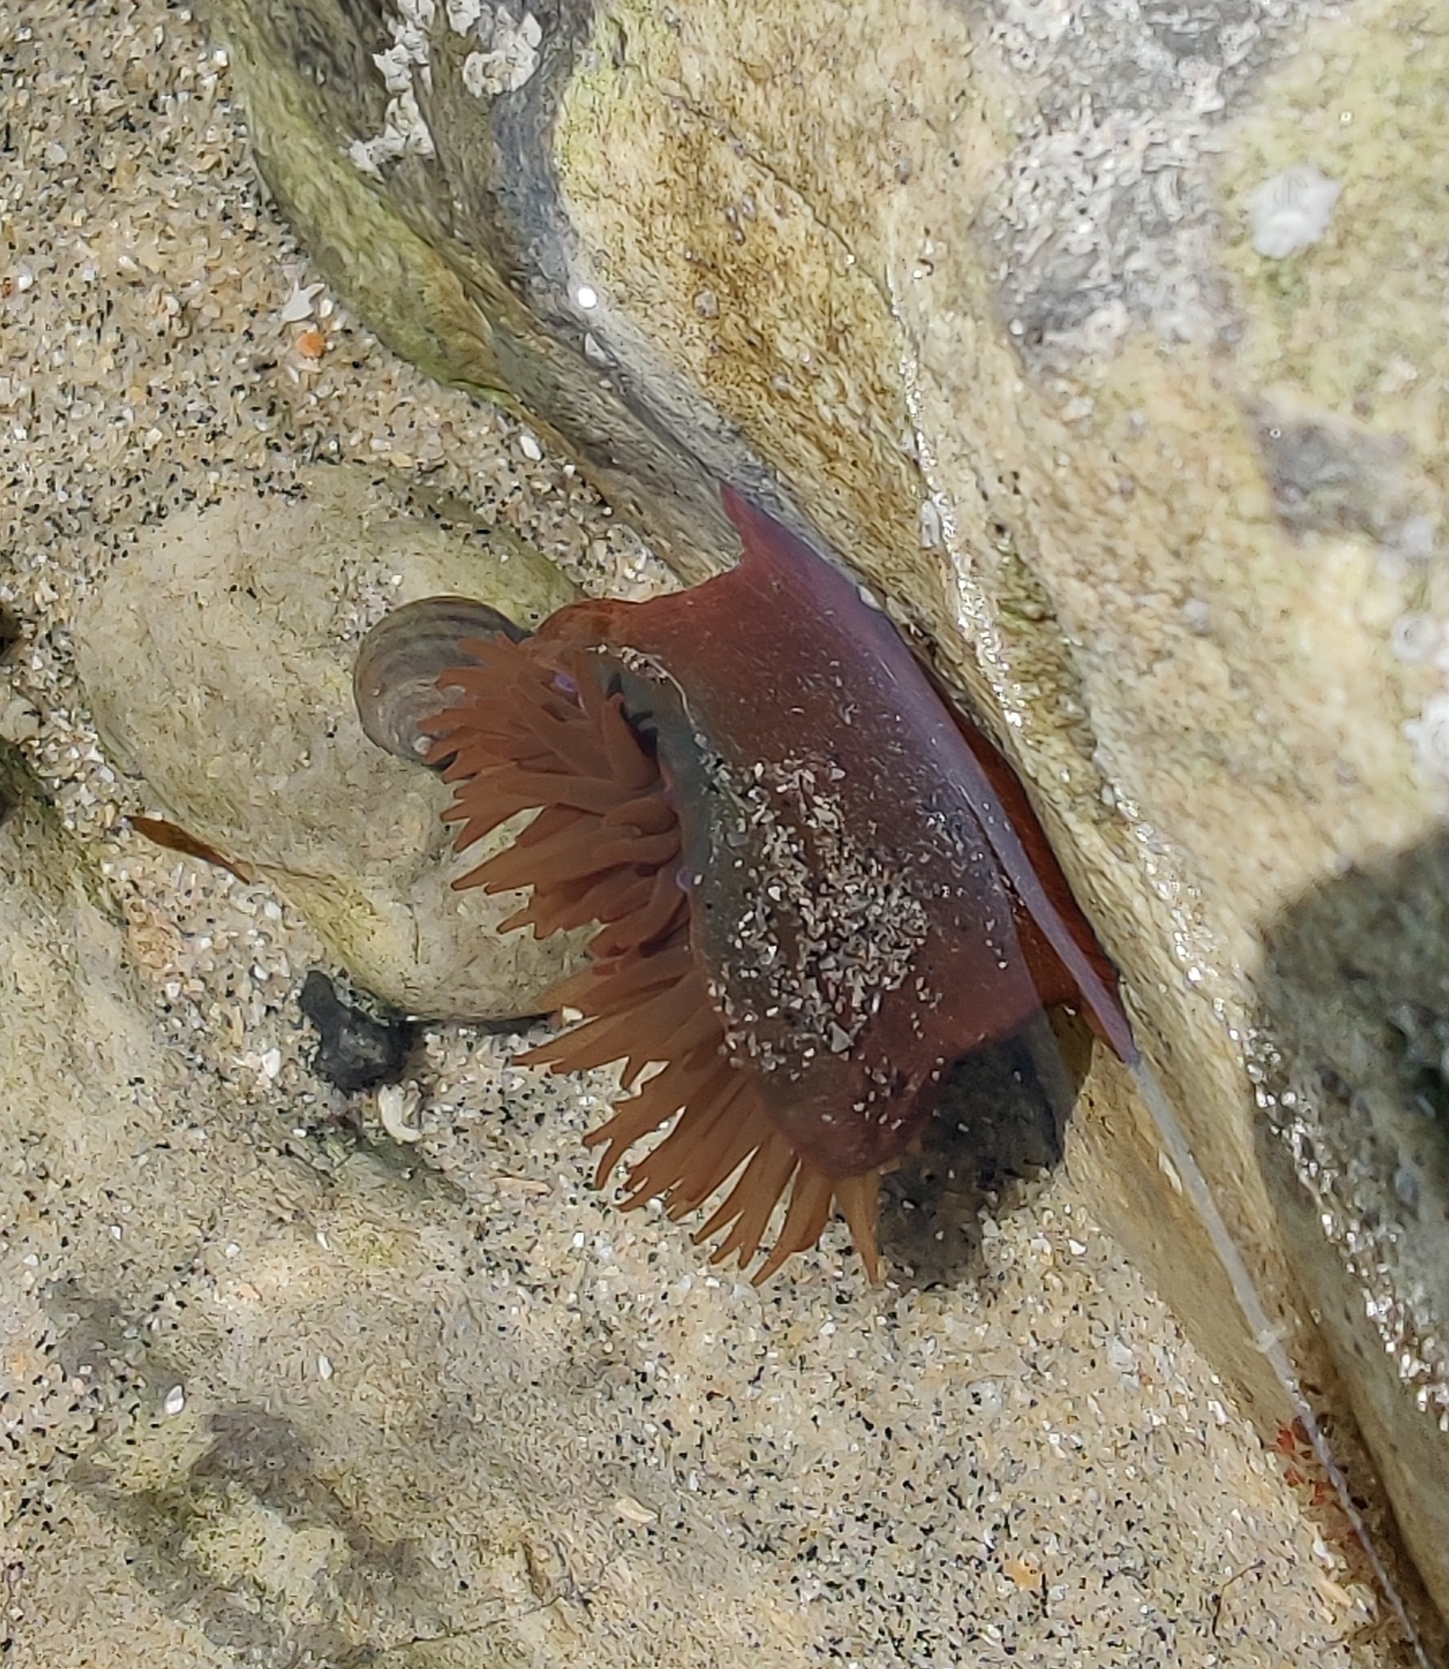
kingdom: Animalia
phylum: Cnidaria
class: Anthozoa
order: Actiniaria
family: Actiniidae
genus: Actinia
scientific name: Actinia equina
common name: Beadlet anemone
